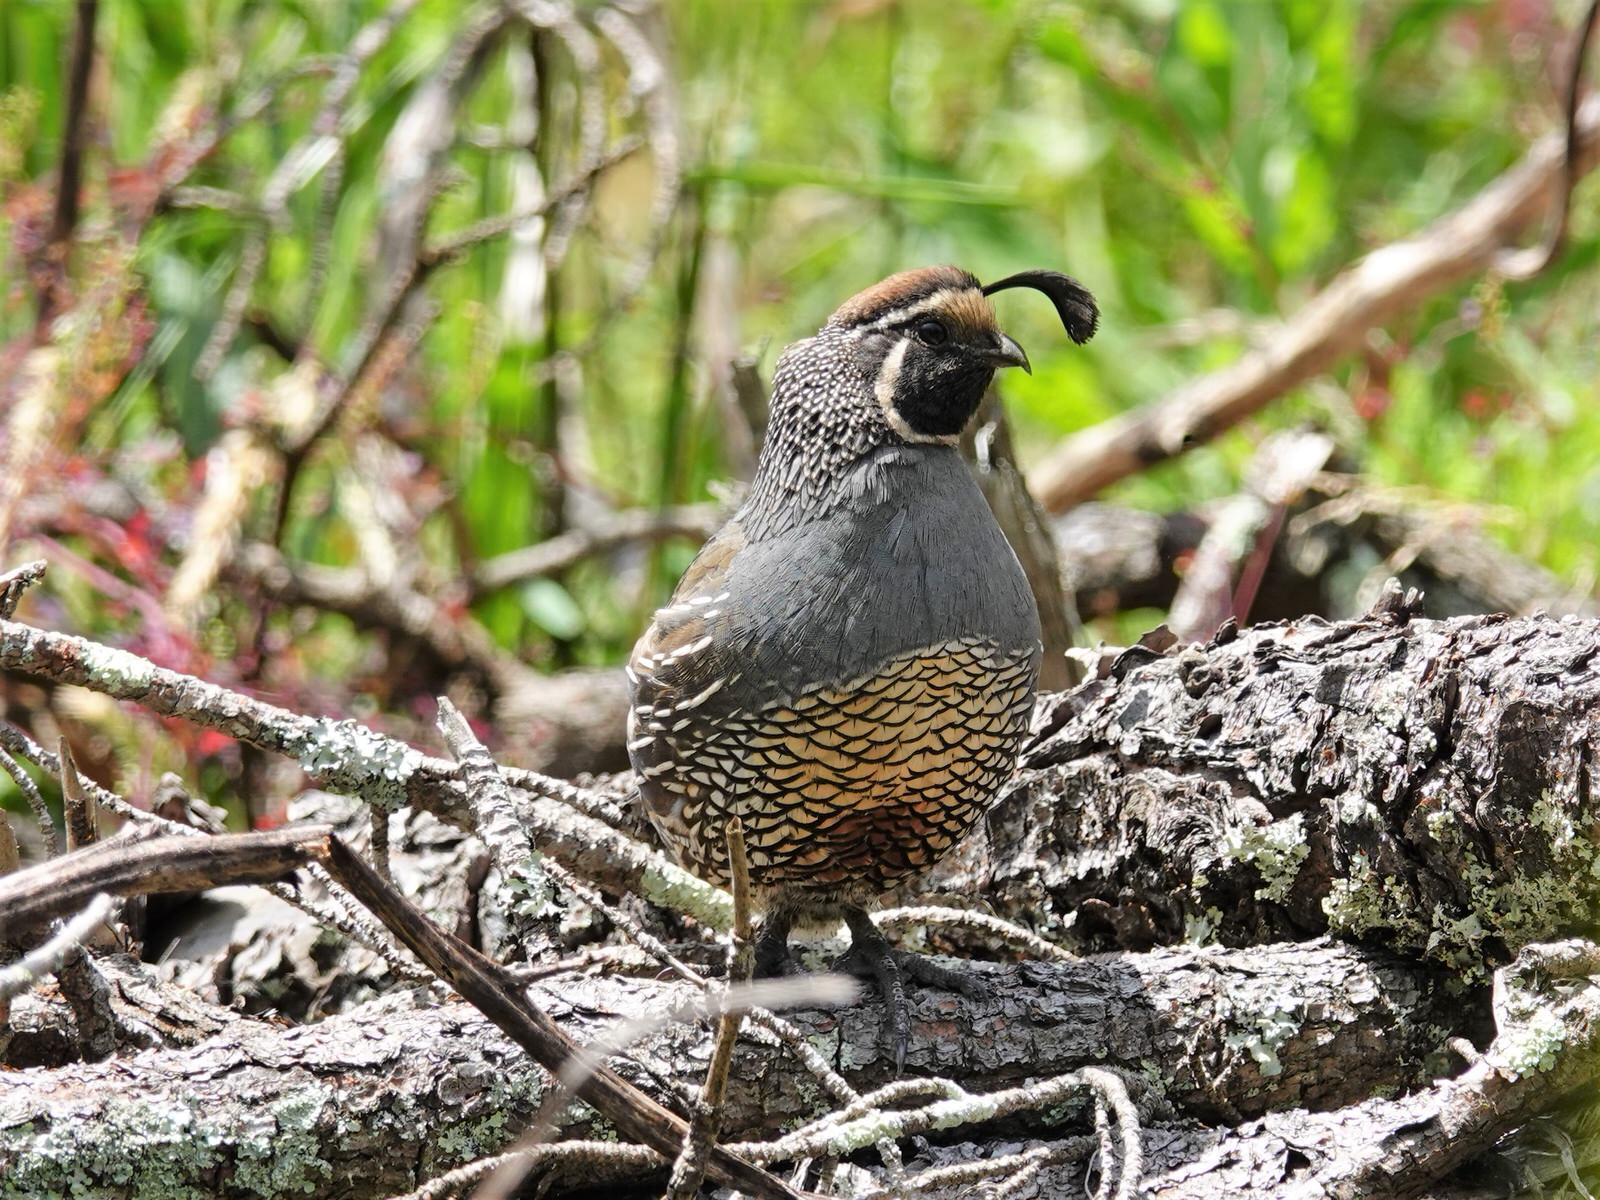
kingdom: Animalia
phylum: Chordata
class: Aves
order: Galliformes
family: Odontophoridae
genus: Callipepla
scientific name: Callipepla californica
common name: California quail
